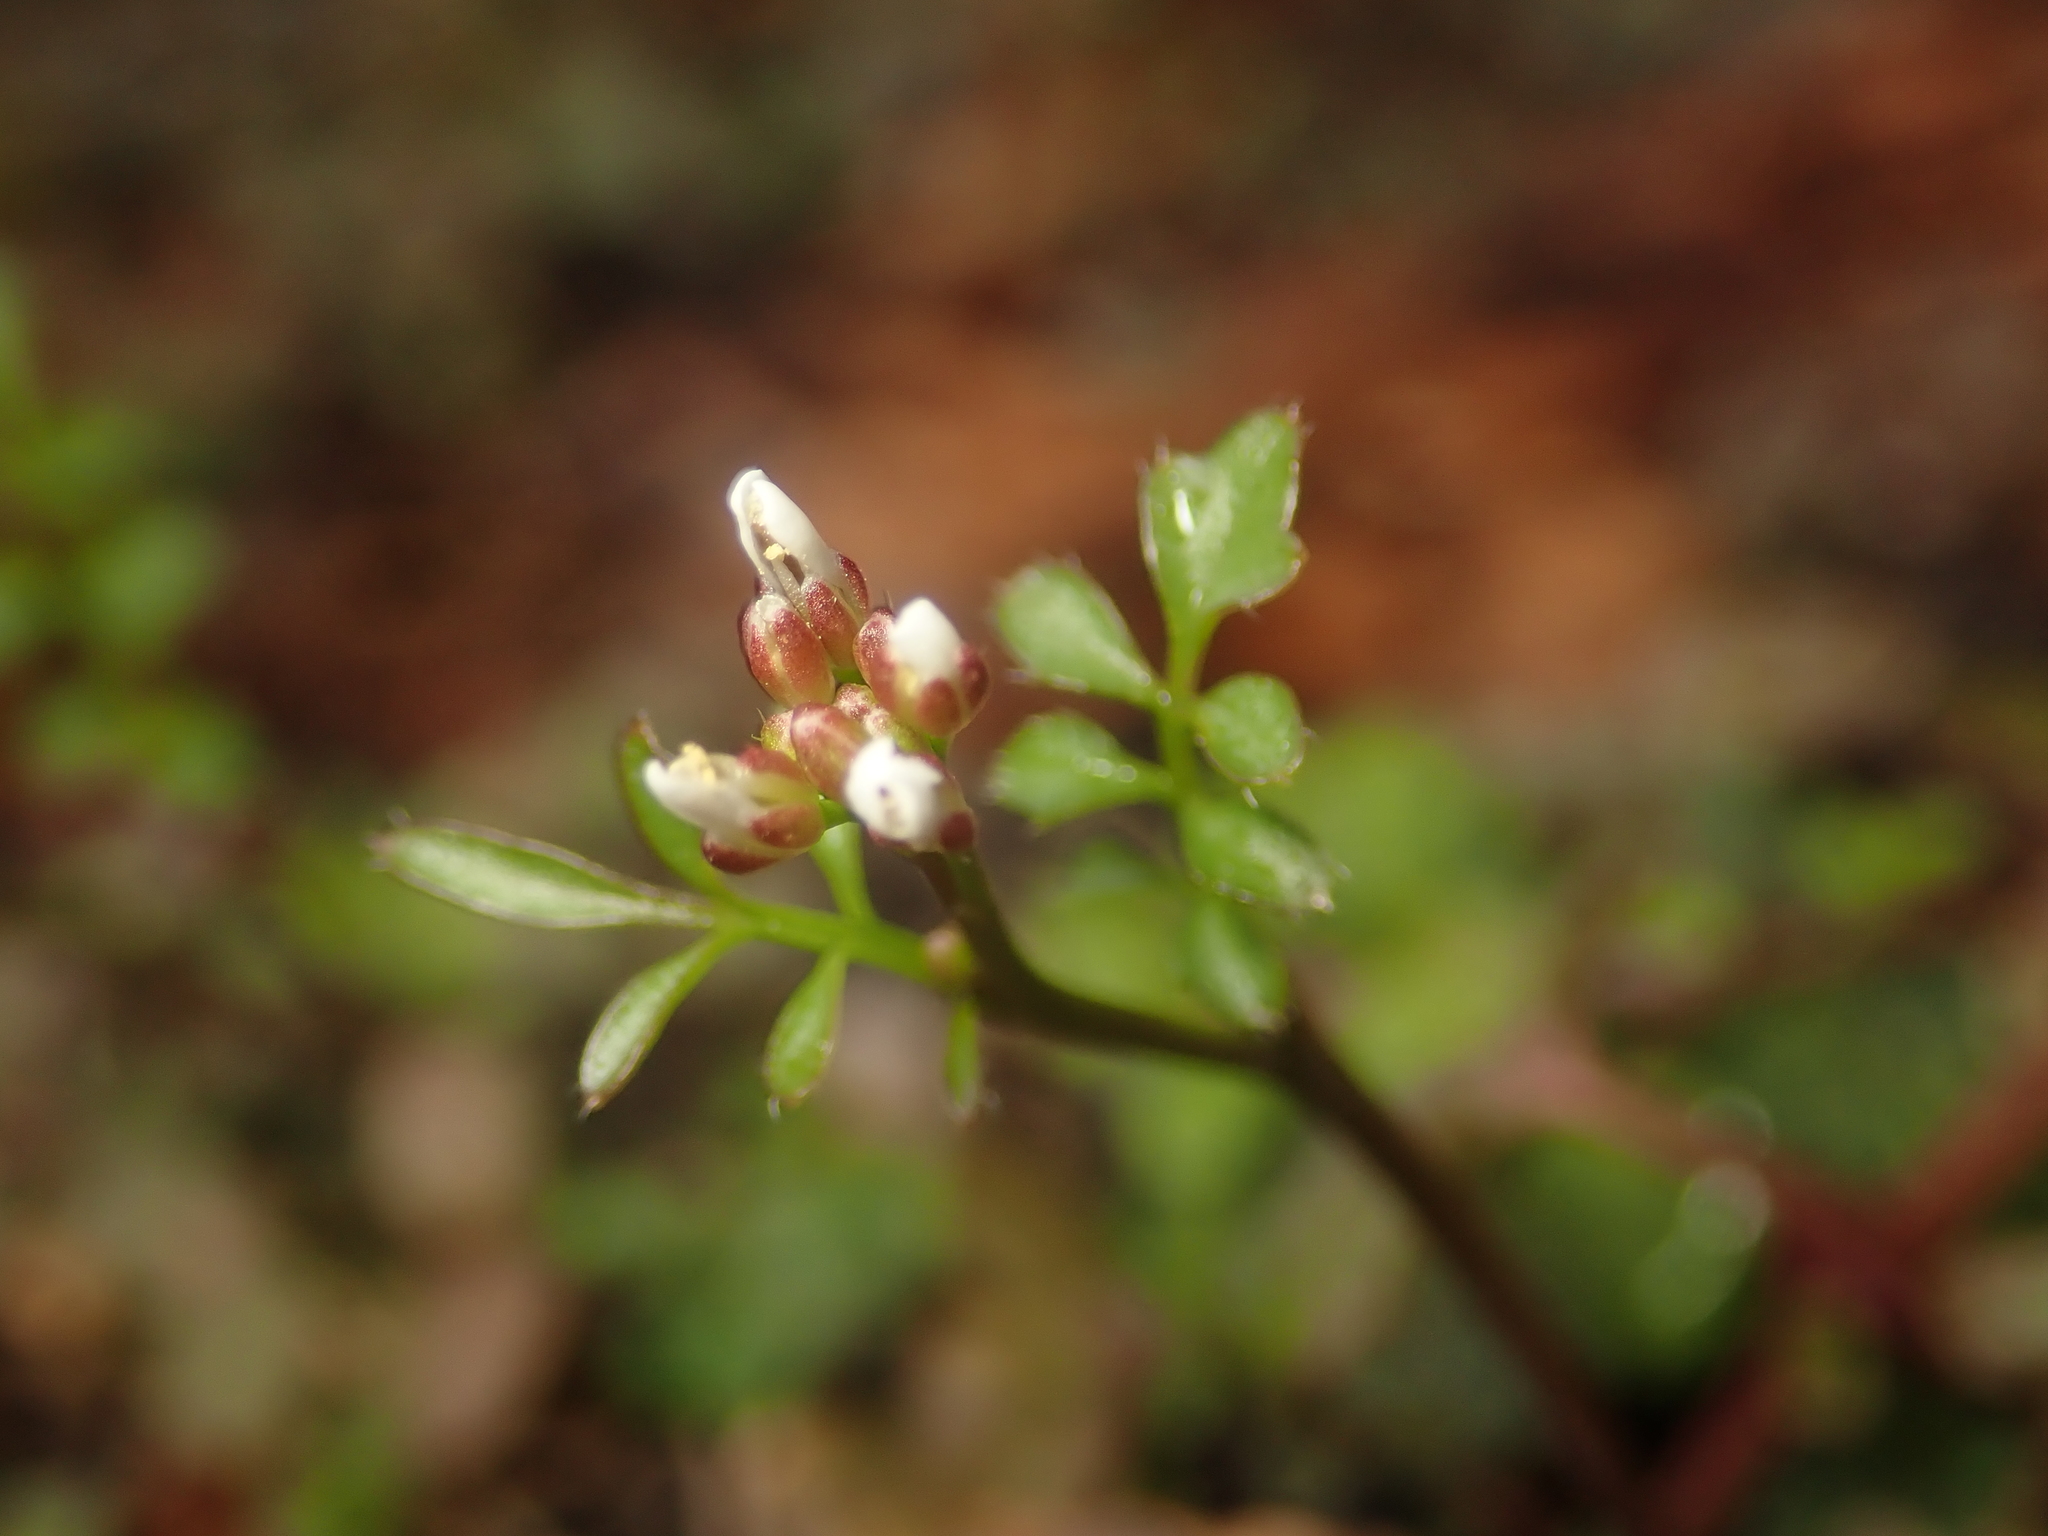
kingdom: Plantae
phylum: Tracheophyta
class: Magnoliopsida
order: Brassicales
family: Brassicaceae
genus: Cardamine
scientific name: Cardamine hirsuta
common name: Hairy bittercress
